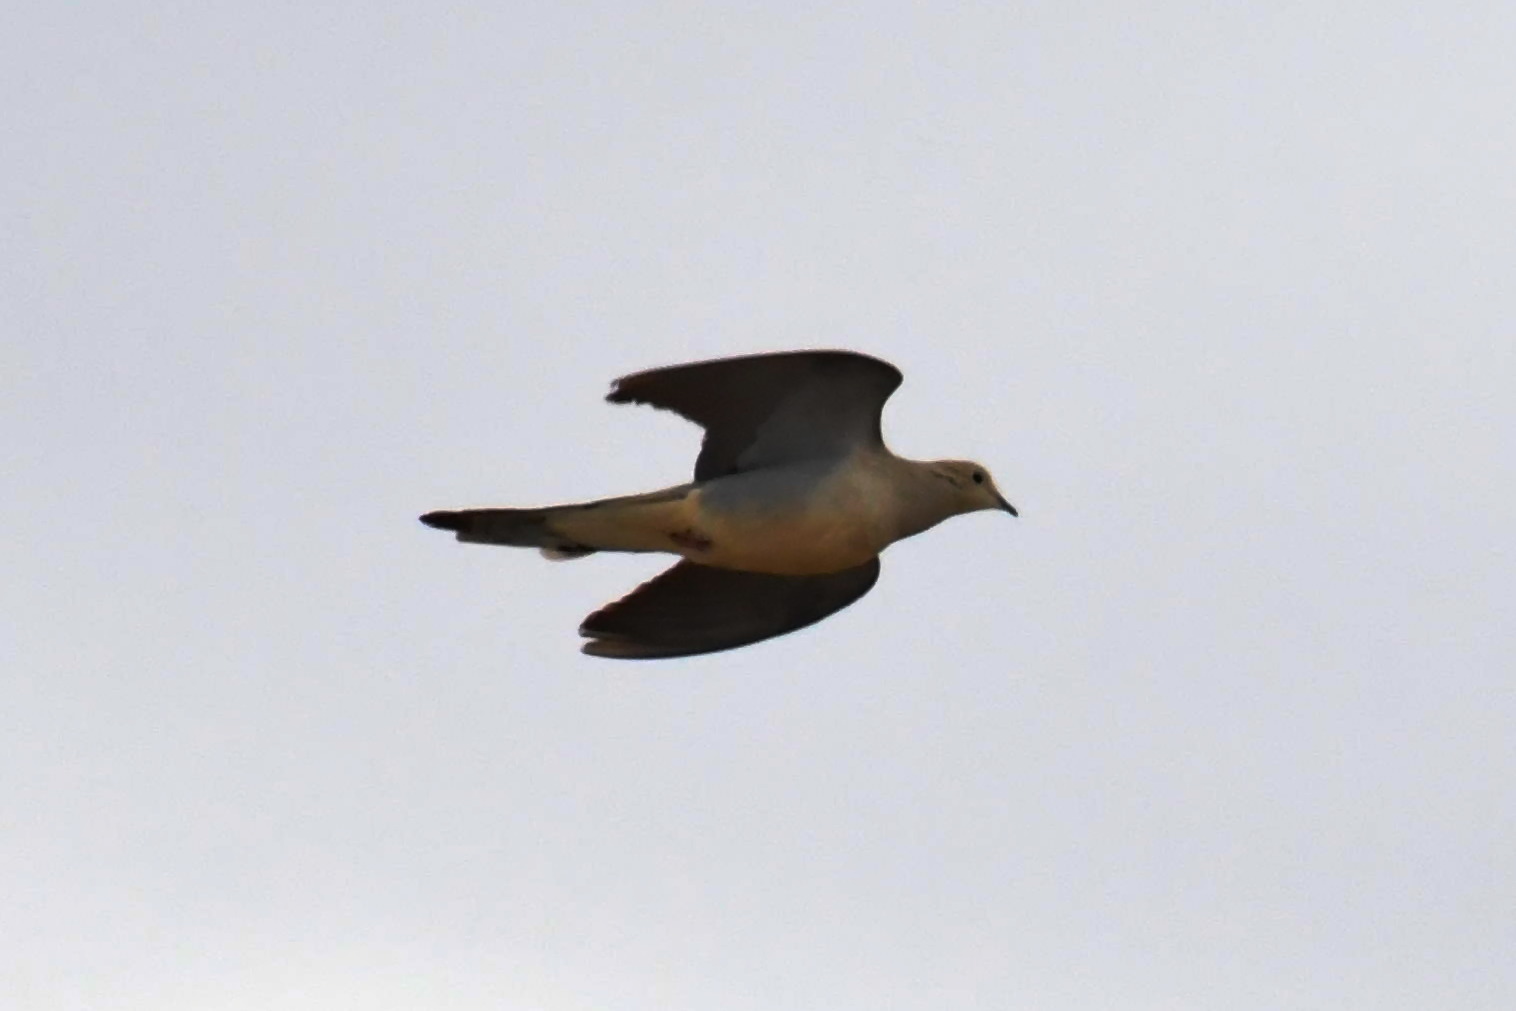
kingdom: Animalia
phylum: Chordata
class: Aves
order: Columbiformes
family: Columbidae
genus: Zenaida
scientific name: Zenaida macroura
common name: Mourning dove
